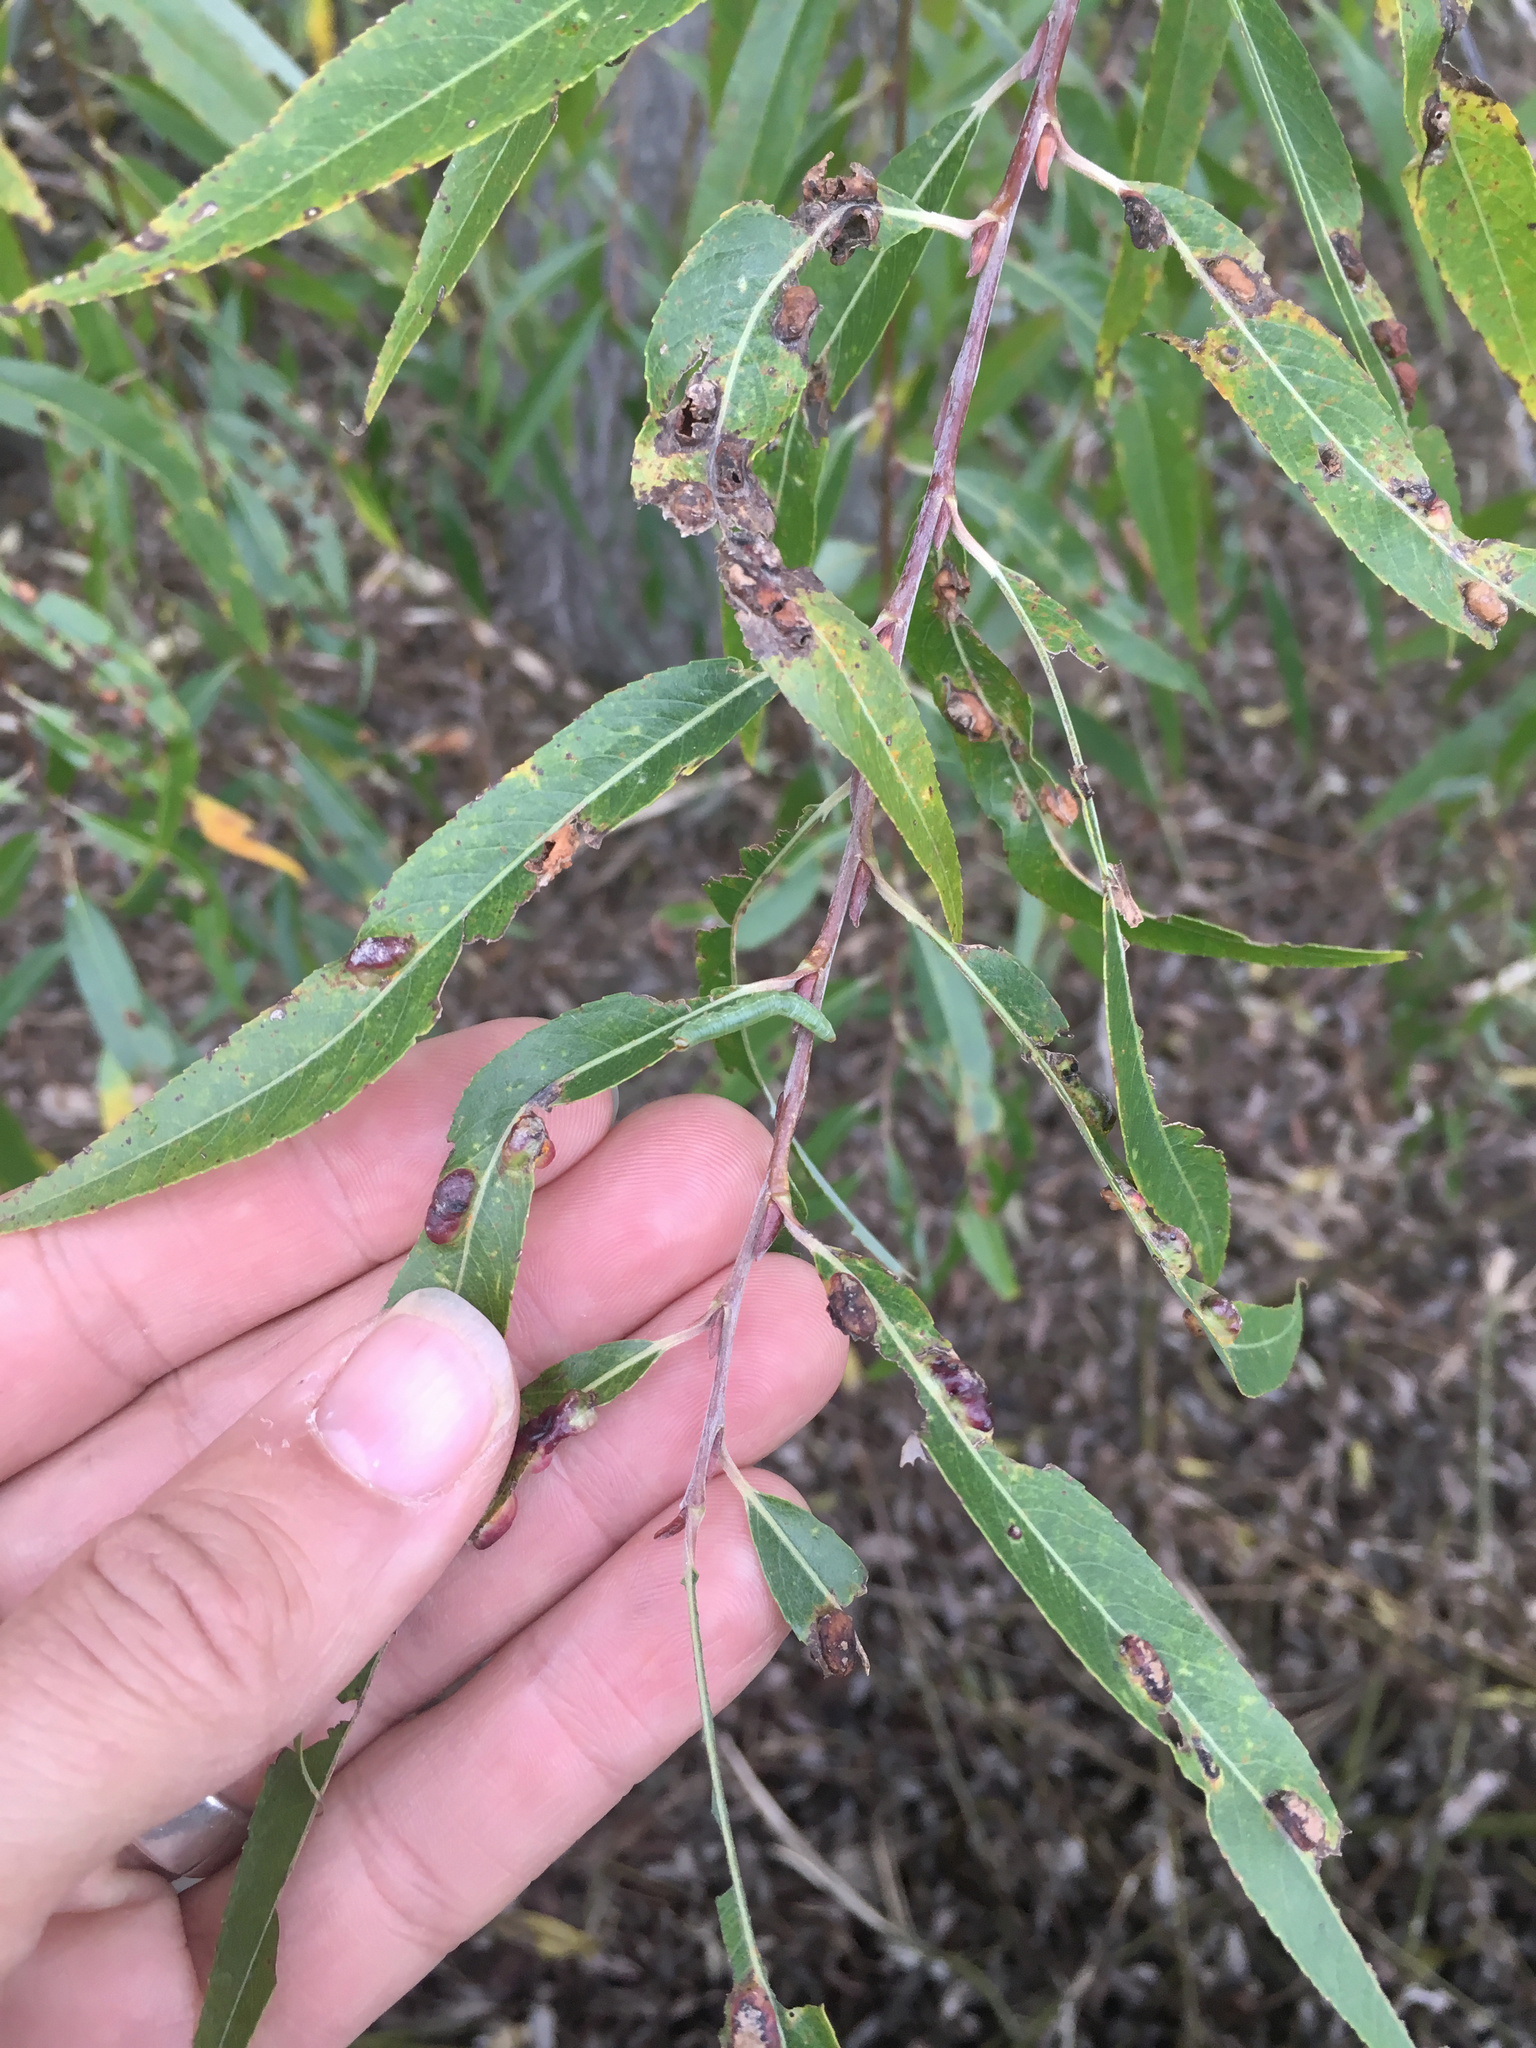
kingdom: Animalia
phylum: Arthropoda
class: Insecta
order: Hymenoptera
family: Tenthredinidae
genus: Pontania
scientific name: Pontania proxima
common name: Common sawfly
